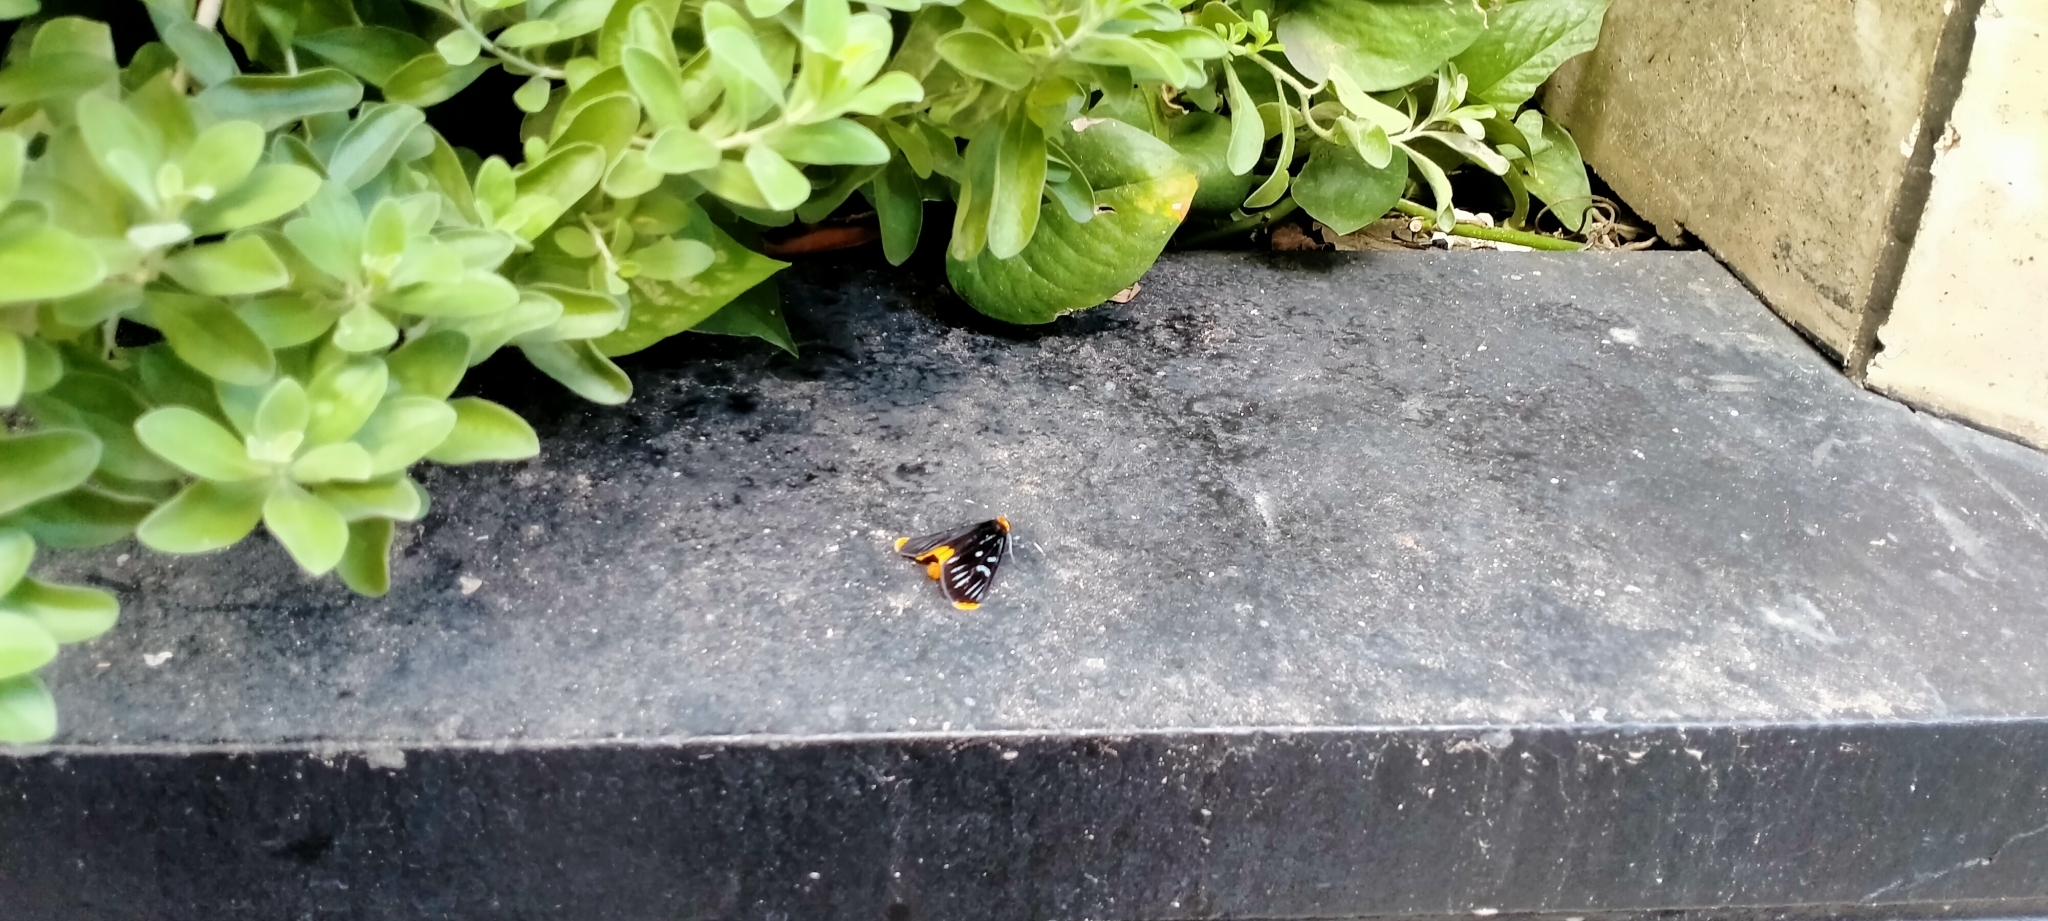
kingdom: Animalia
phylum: Arthropoda
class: Insecta
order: Lepidoptera
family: Noctuidae
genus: Ophthalmis
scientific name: Ophthalmis lincea
